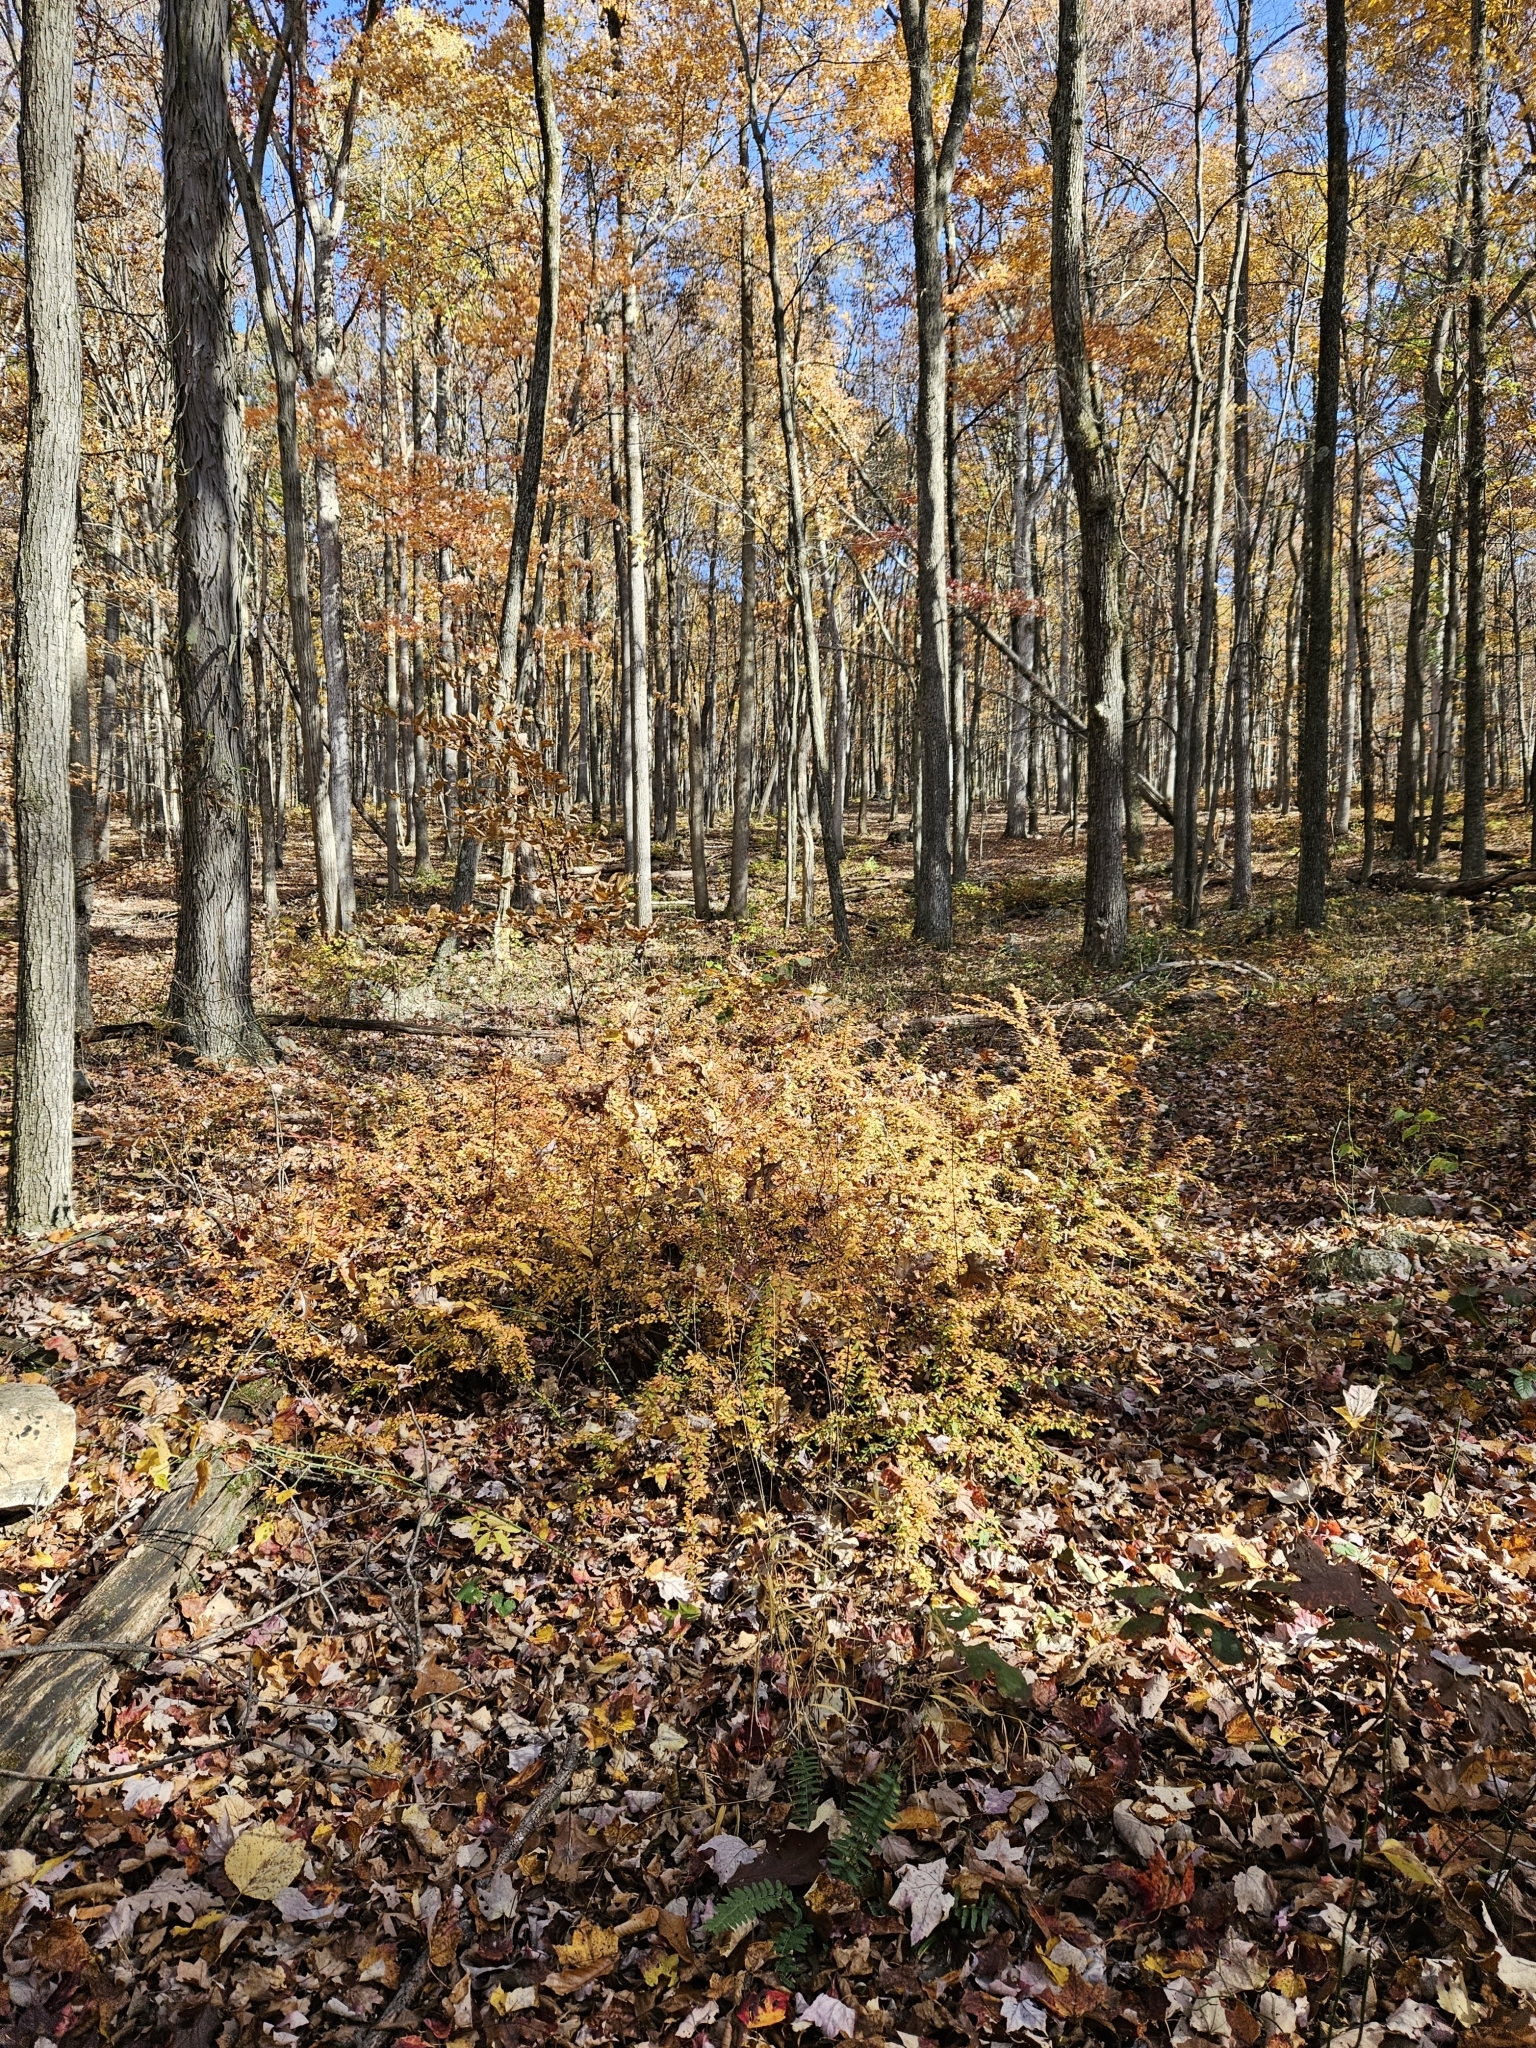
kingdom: Plantae
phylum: Tracheophyta
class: Magnoliopsida
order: Ranunculales
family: Berberidaceae
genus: Berberis
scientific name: Berberis thunbergii
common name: Japanese barberry
